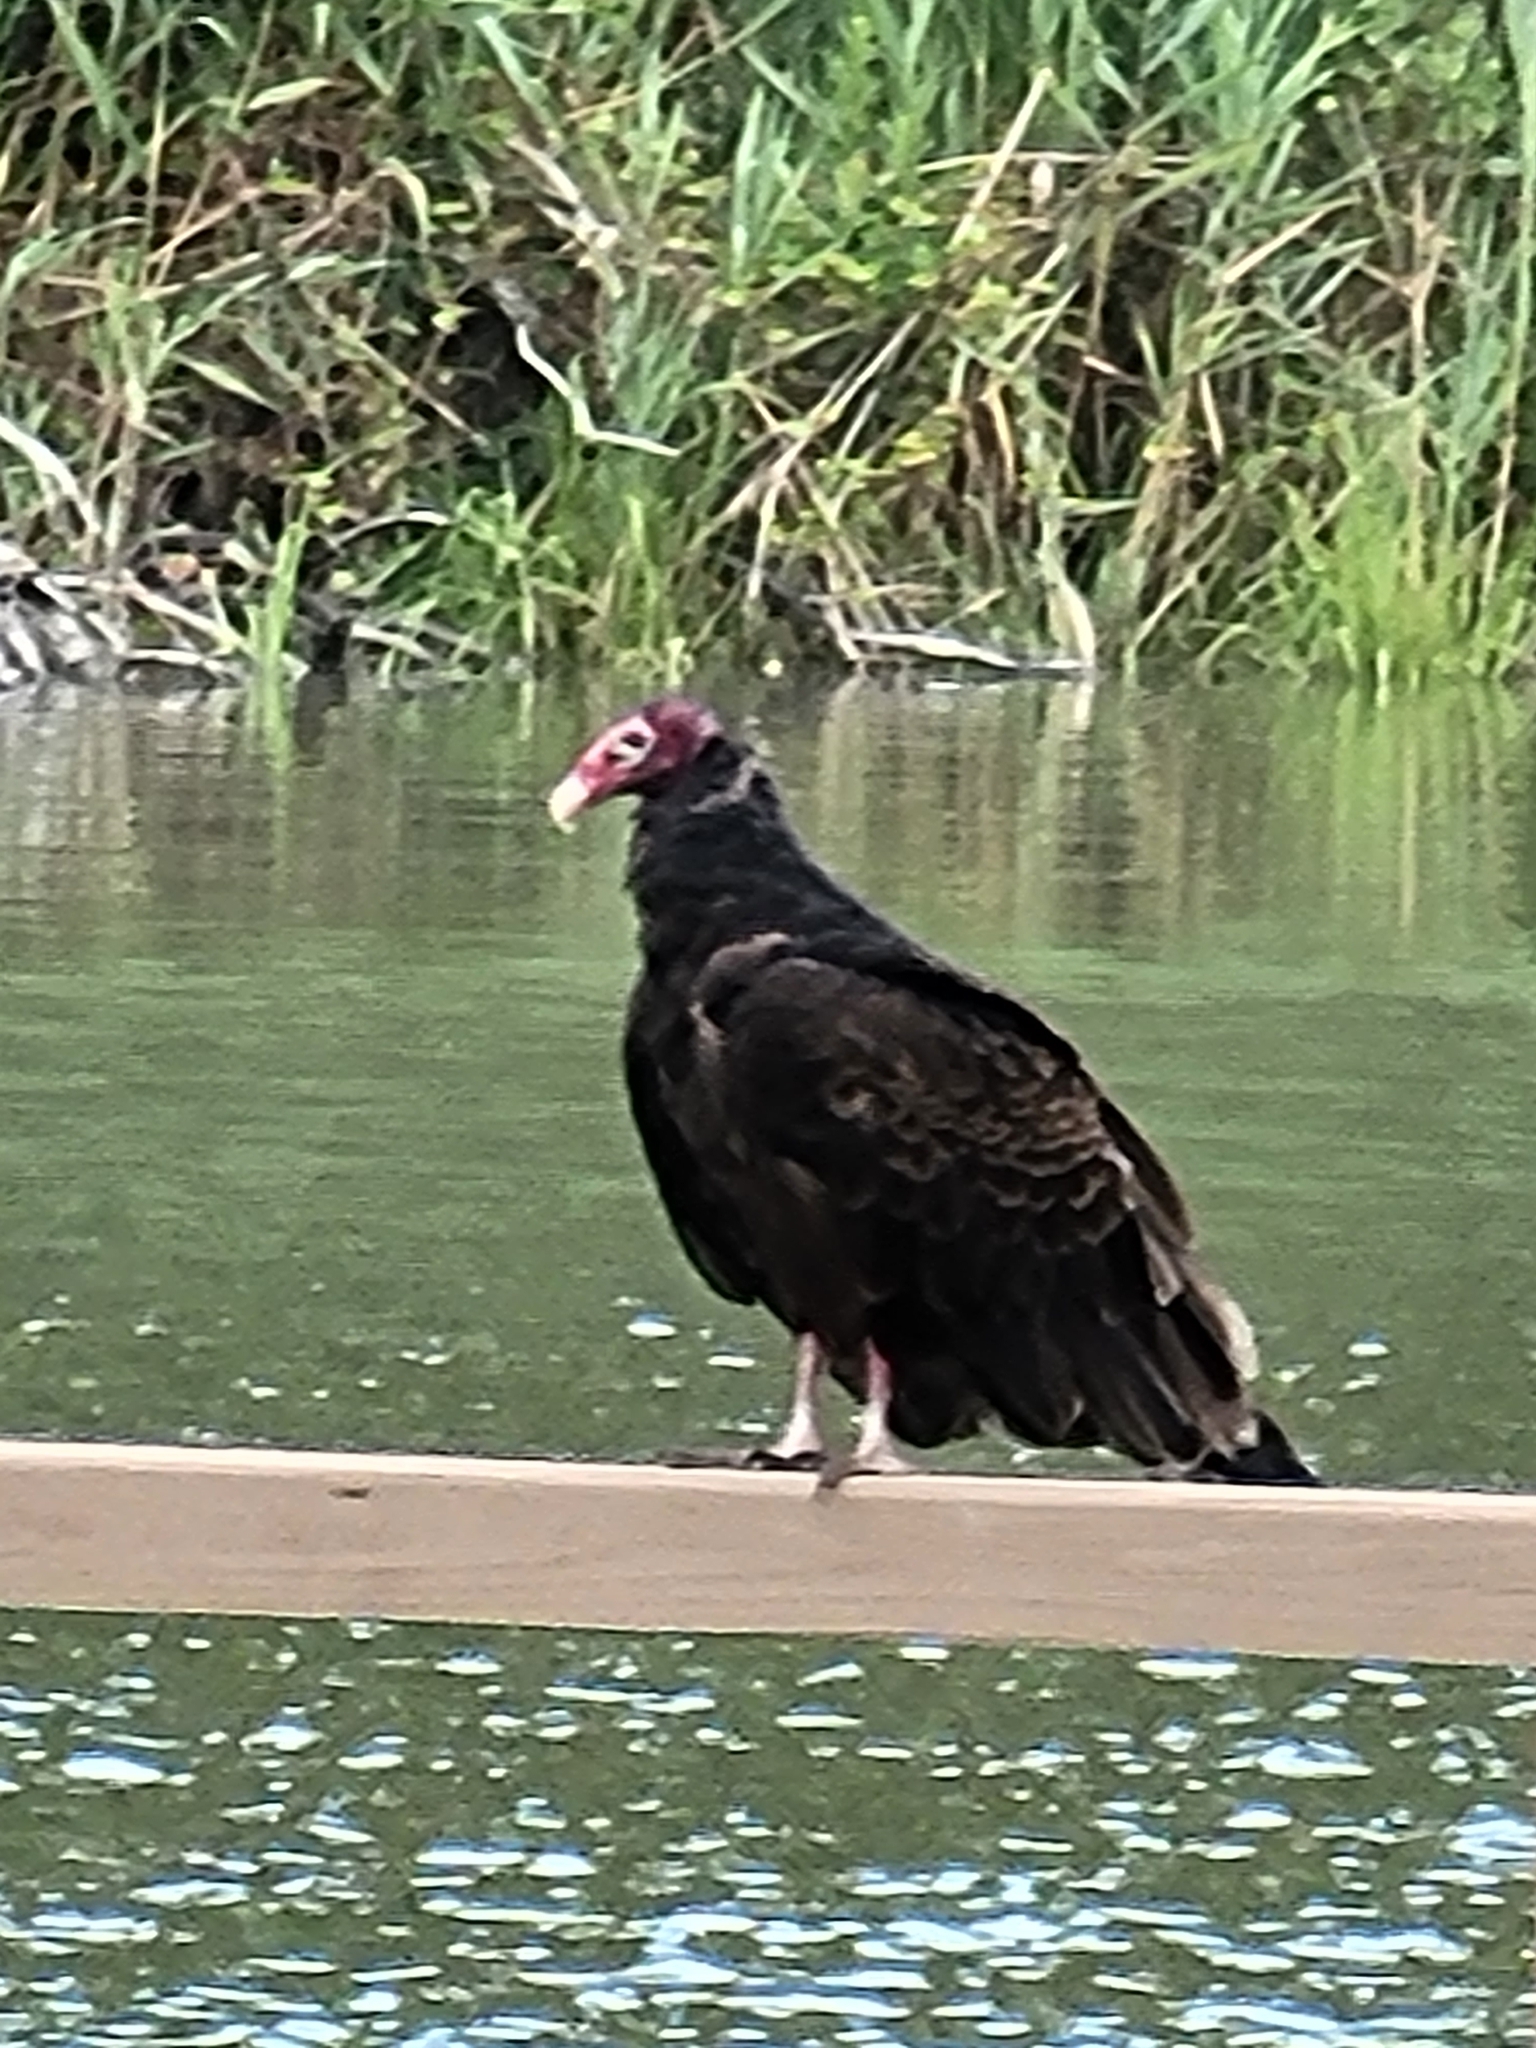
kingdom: Animalia
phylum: Chordata
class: Aves
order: Accipitriformes
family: Cathartidae
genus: Cathartes
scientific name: Cathartes aura
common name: Turkey vulture
